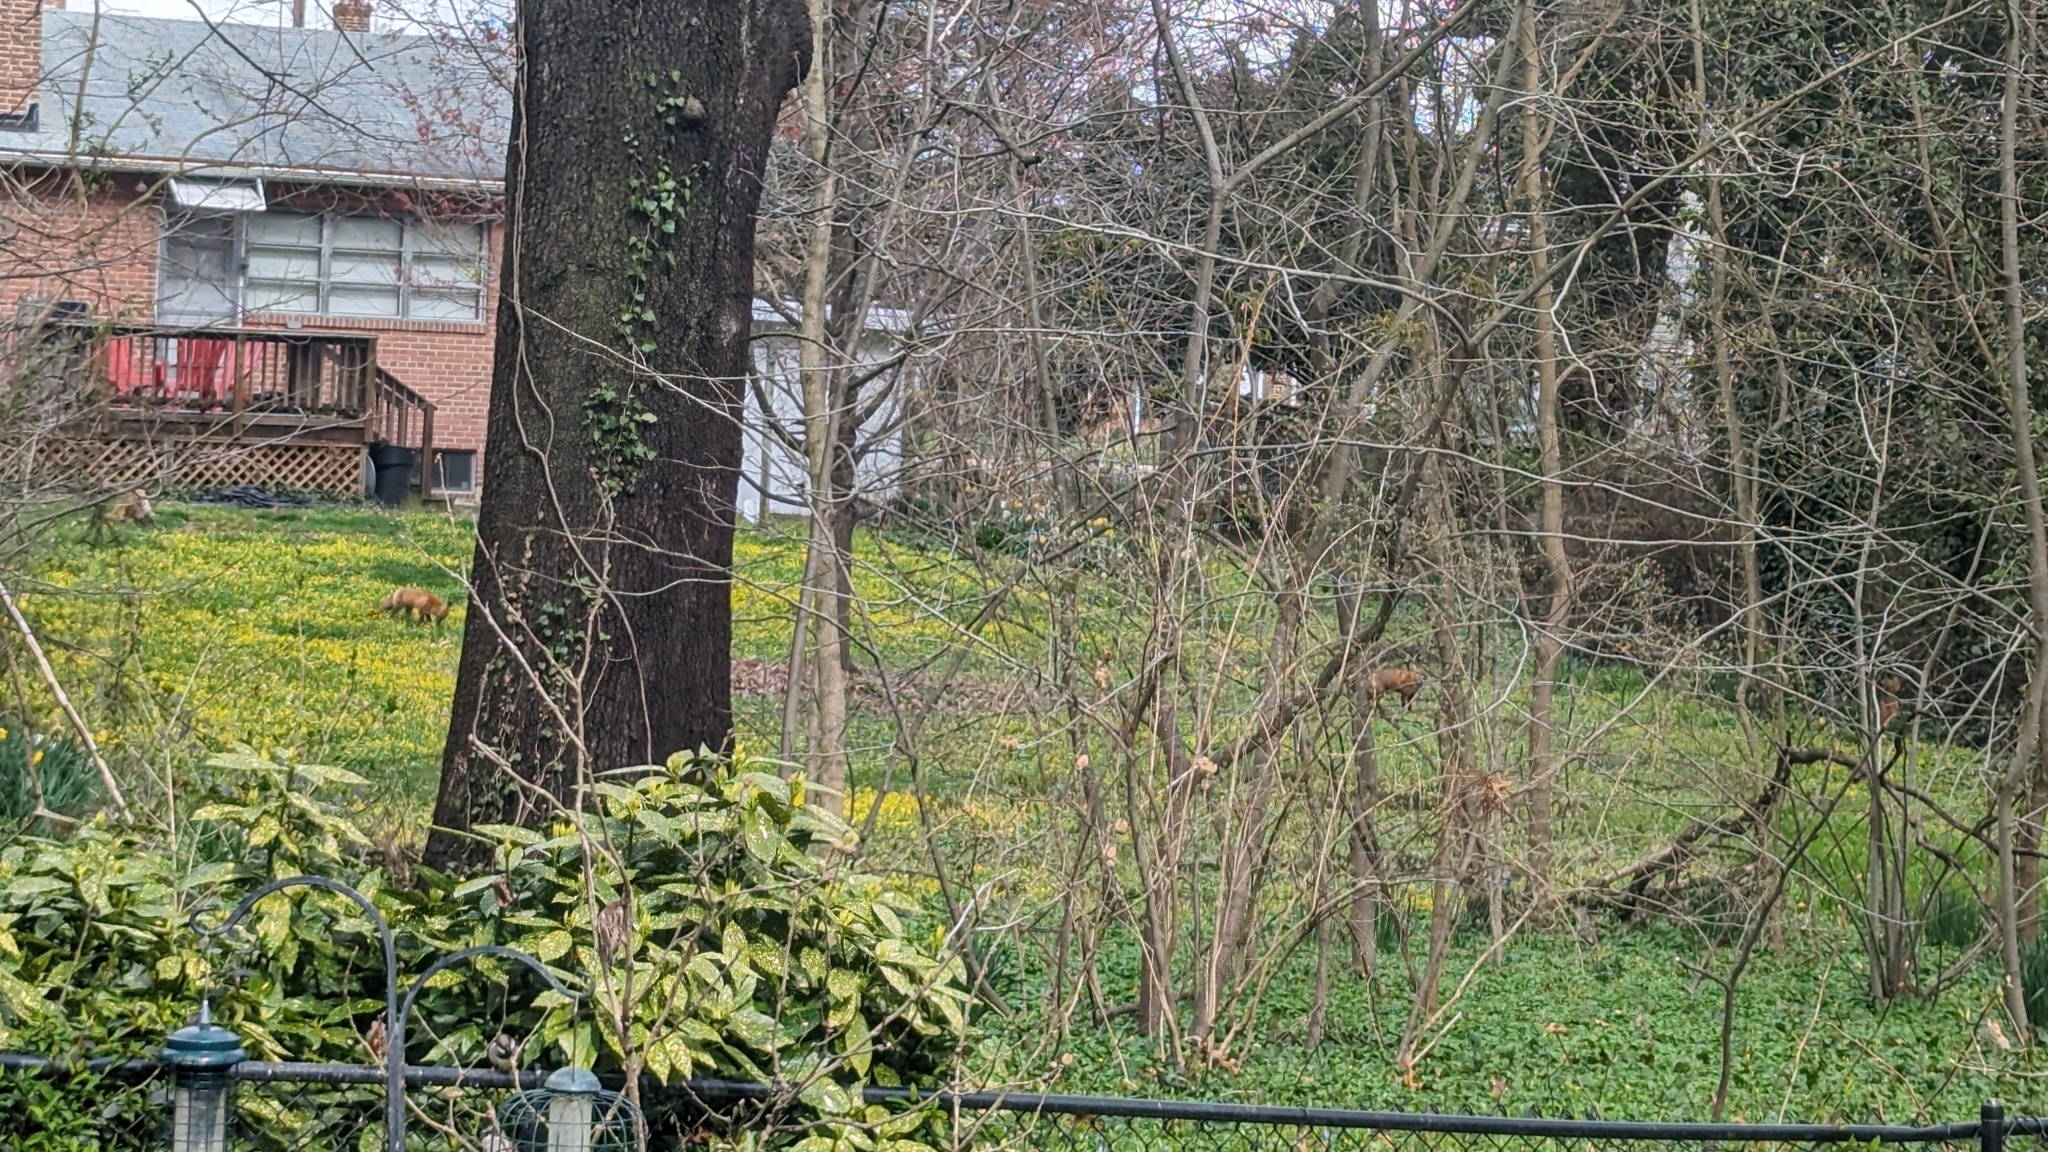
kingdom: Animalia
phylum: Chordata
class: Mammalia
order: Carnivora
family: Canidae
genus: Vulpes
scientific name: Vulpes vulpes
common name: Red fox
